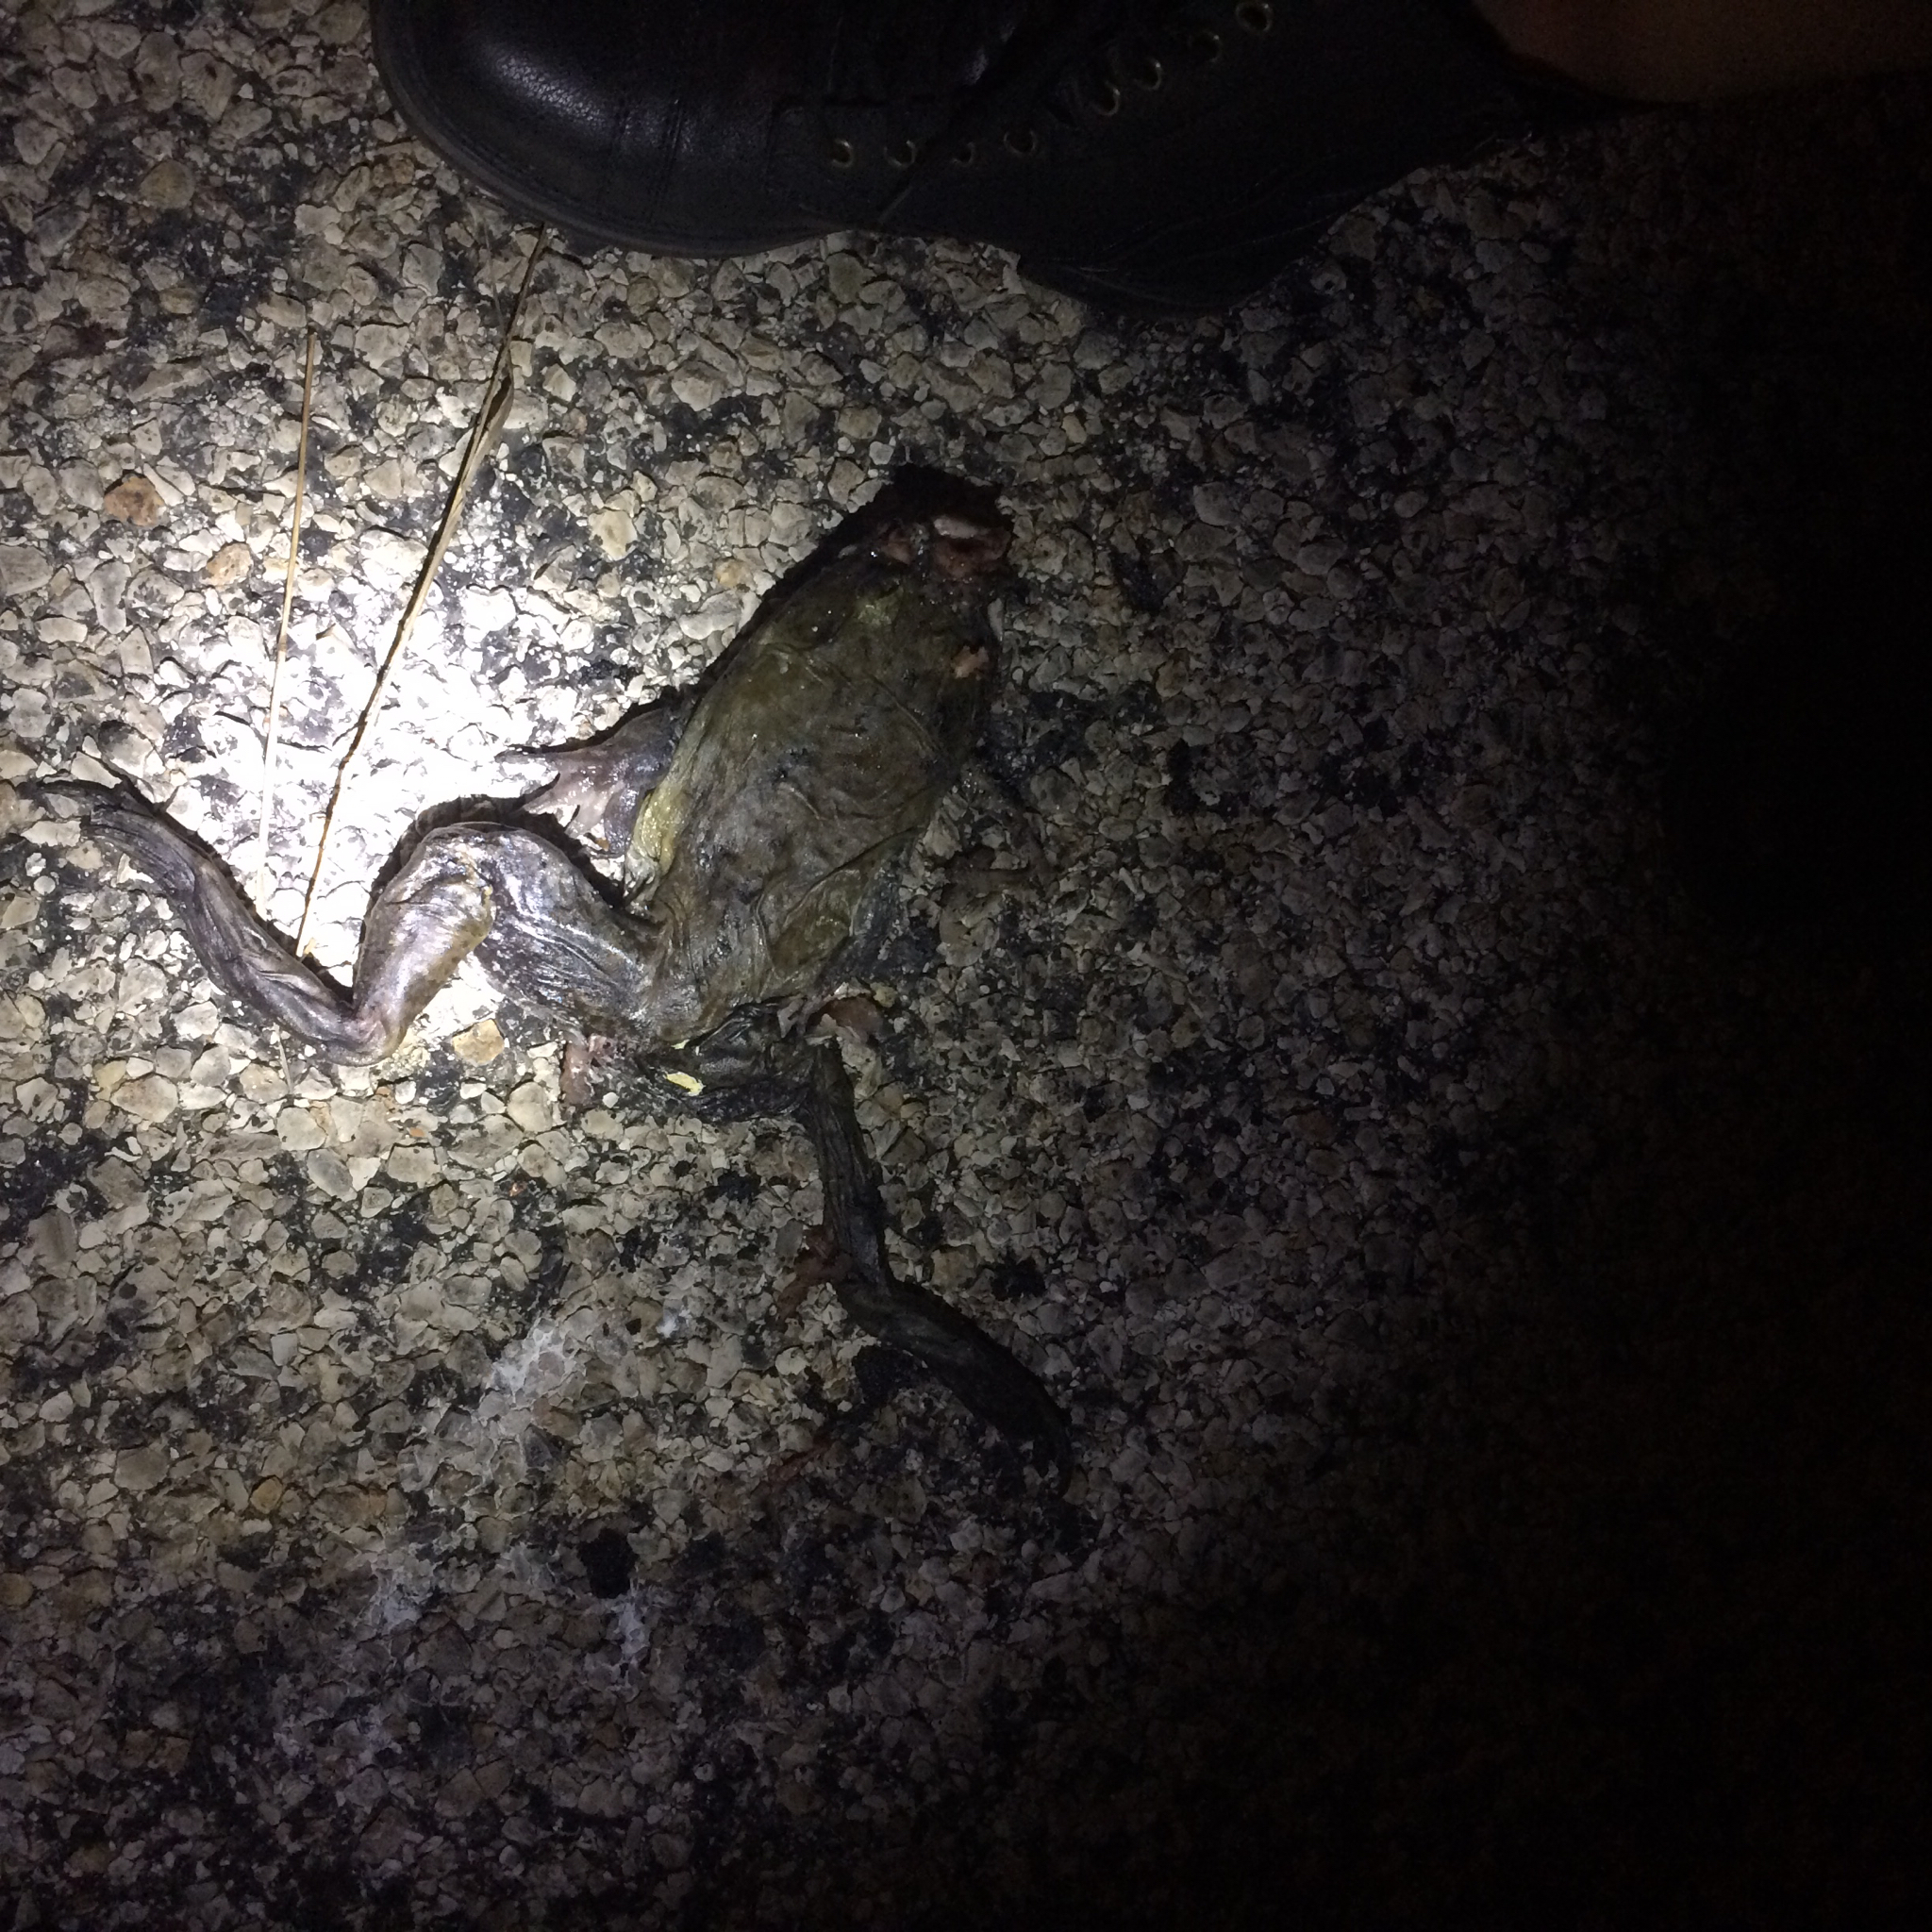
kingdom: Animalia
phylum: Chordata
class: Amphibia
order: Anura
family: Ranidae
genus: Lithobates
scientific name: Lithobates catesbeianus
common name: American bullfrog
